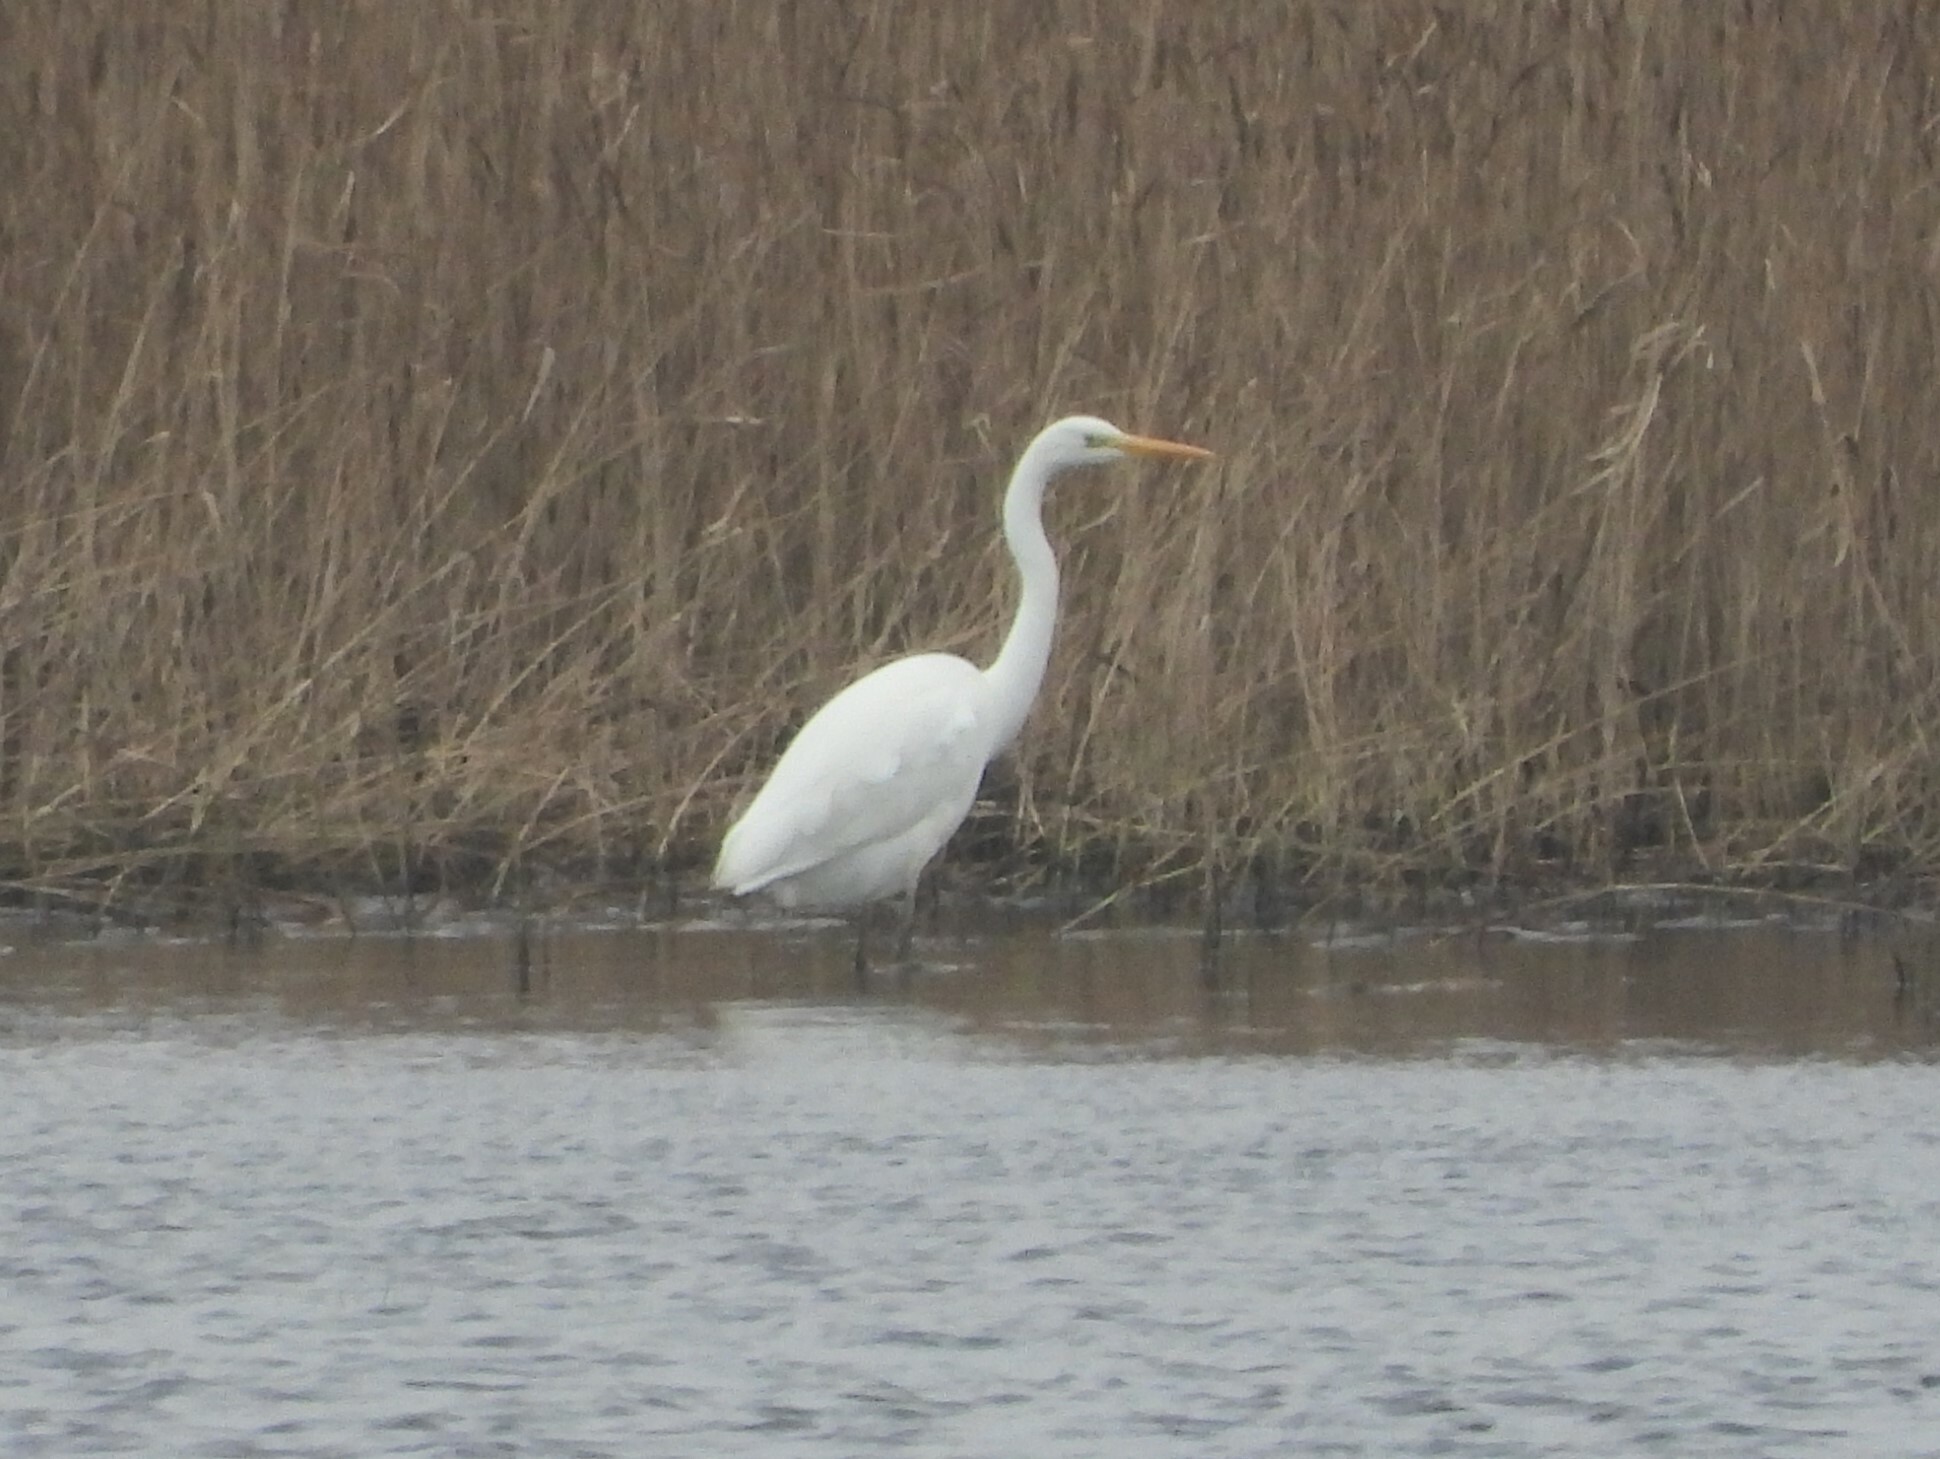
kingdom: Animalia
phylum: Chordata
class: Aves
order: Pelecaniformes
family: Ardeidae
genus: Ardea
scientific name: Ardea alba
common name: Great egret
